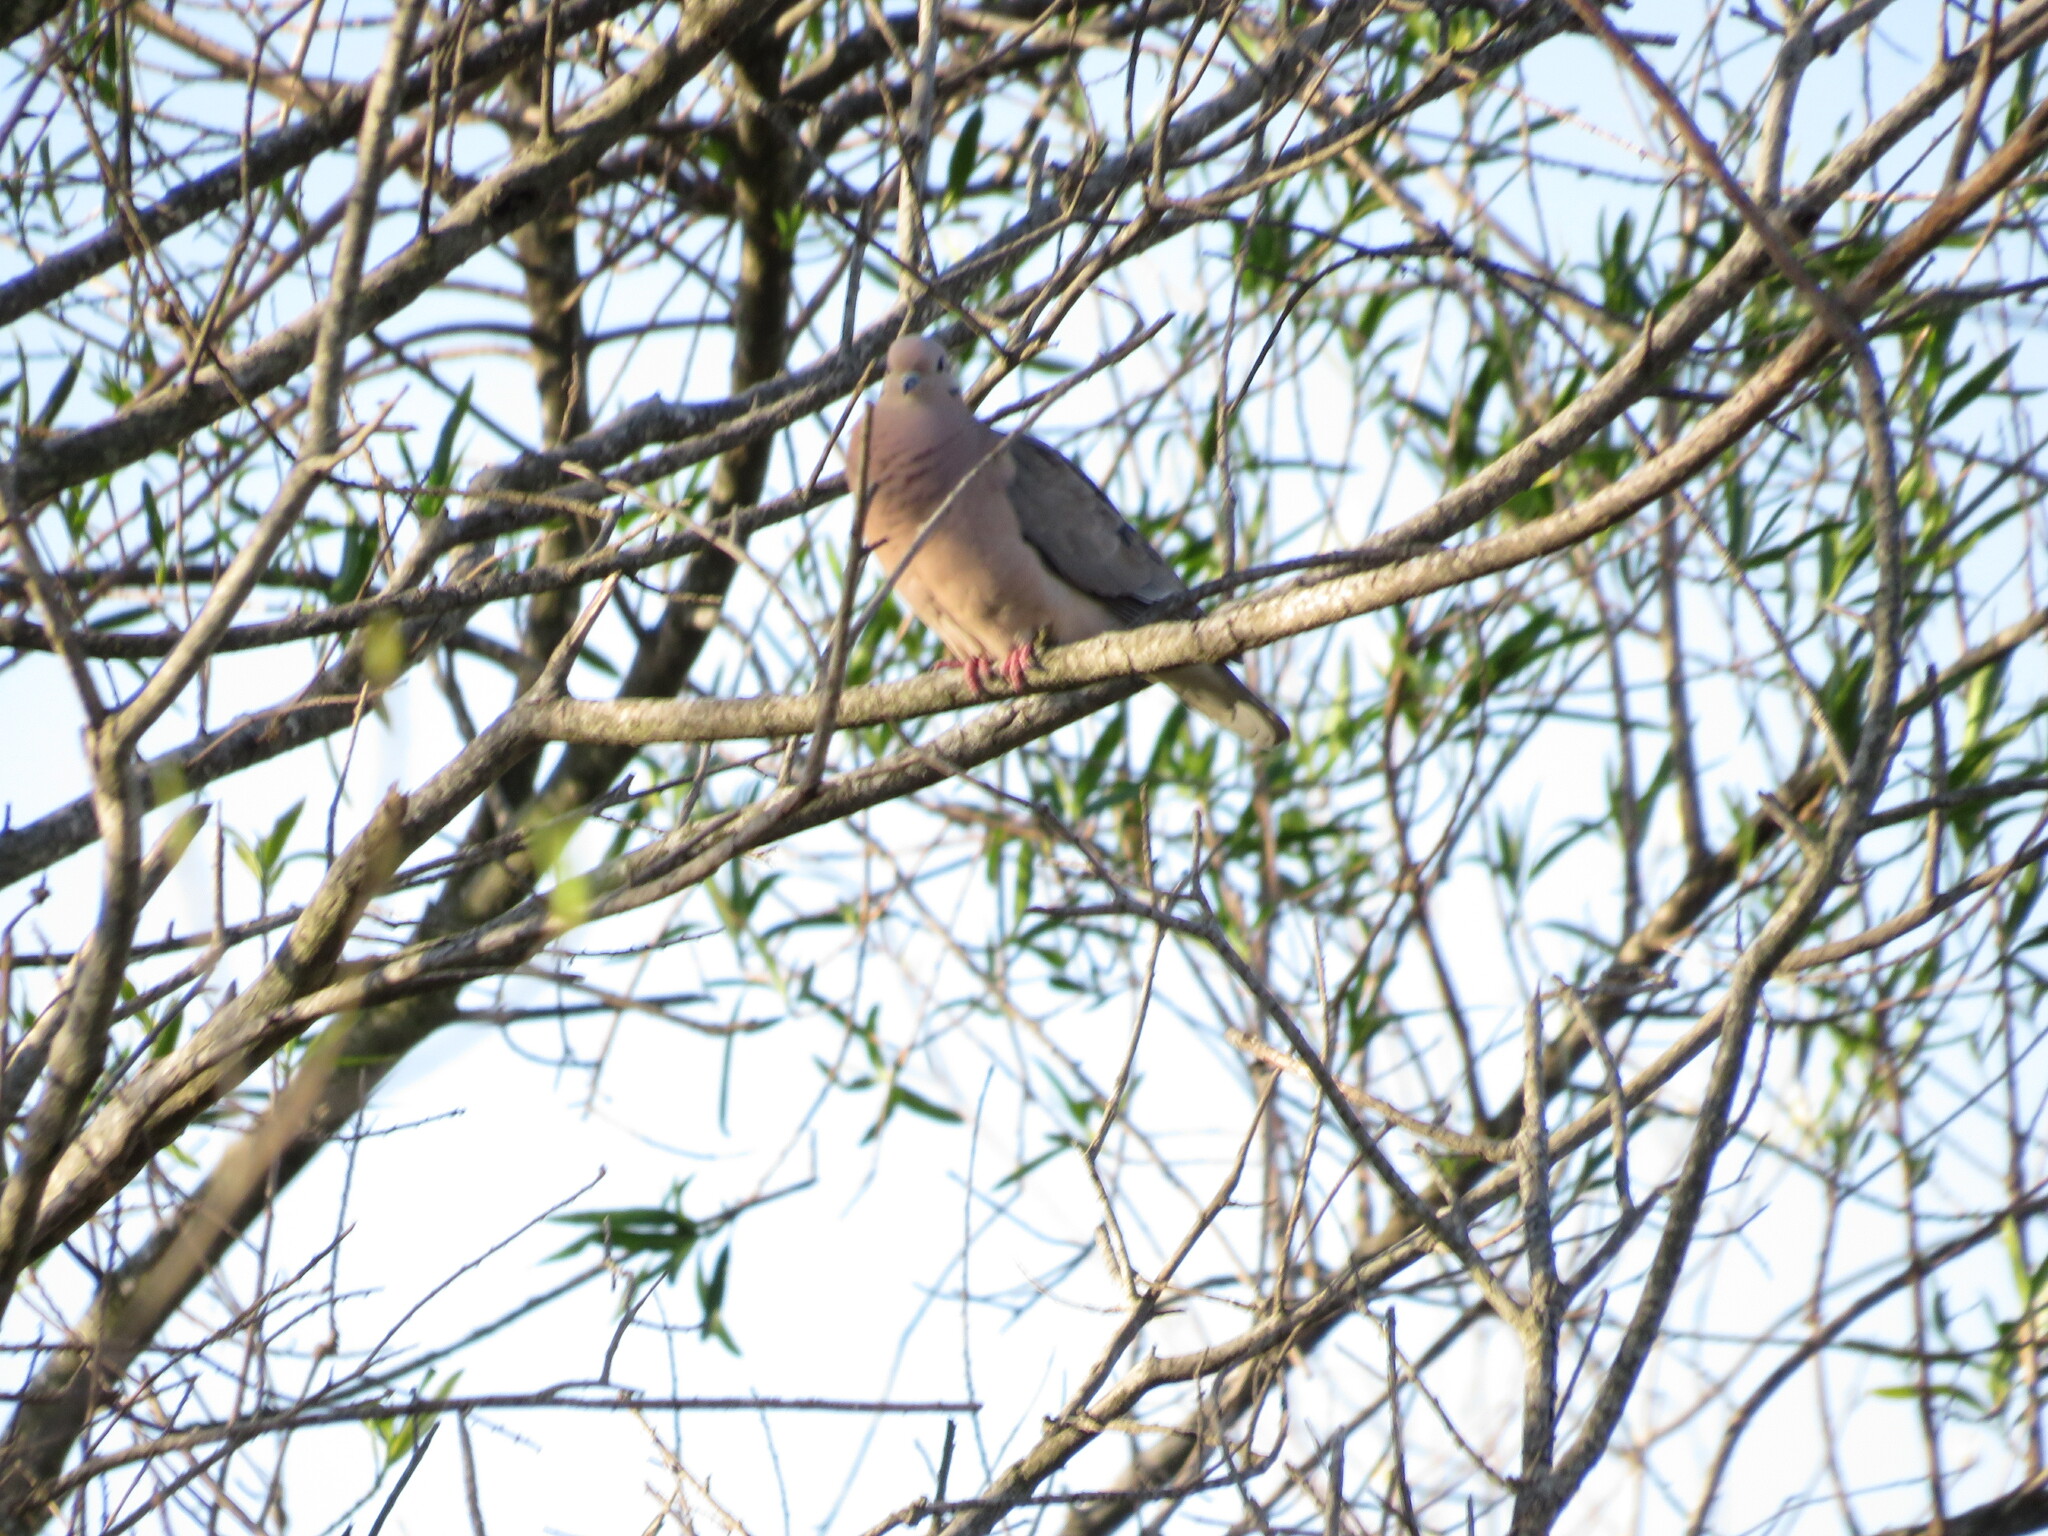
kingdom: Animalia
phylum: Chordata
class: Aves
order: Columbiformes
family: Columbidae
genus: Zenaida
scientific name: Zenaida auriculata
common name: Eared dove
